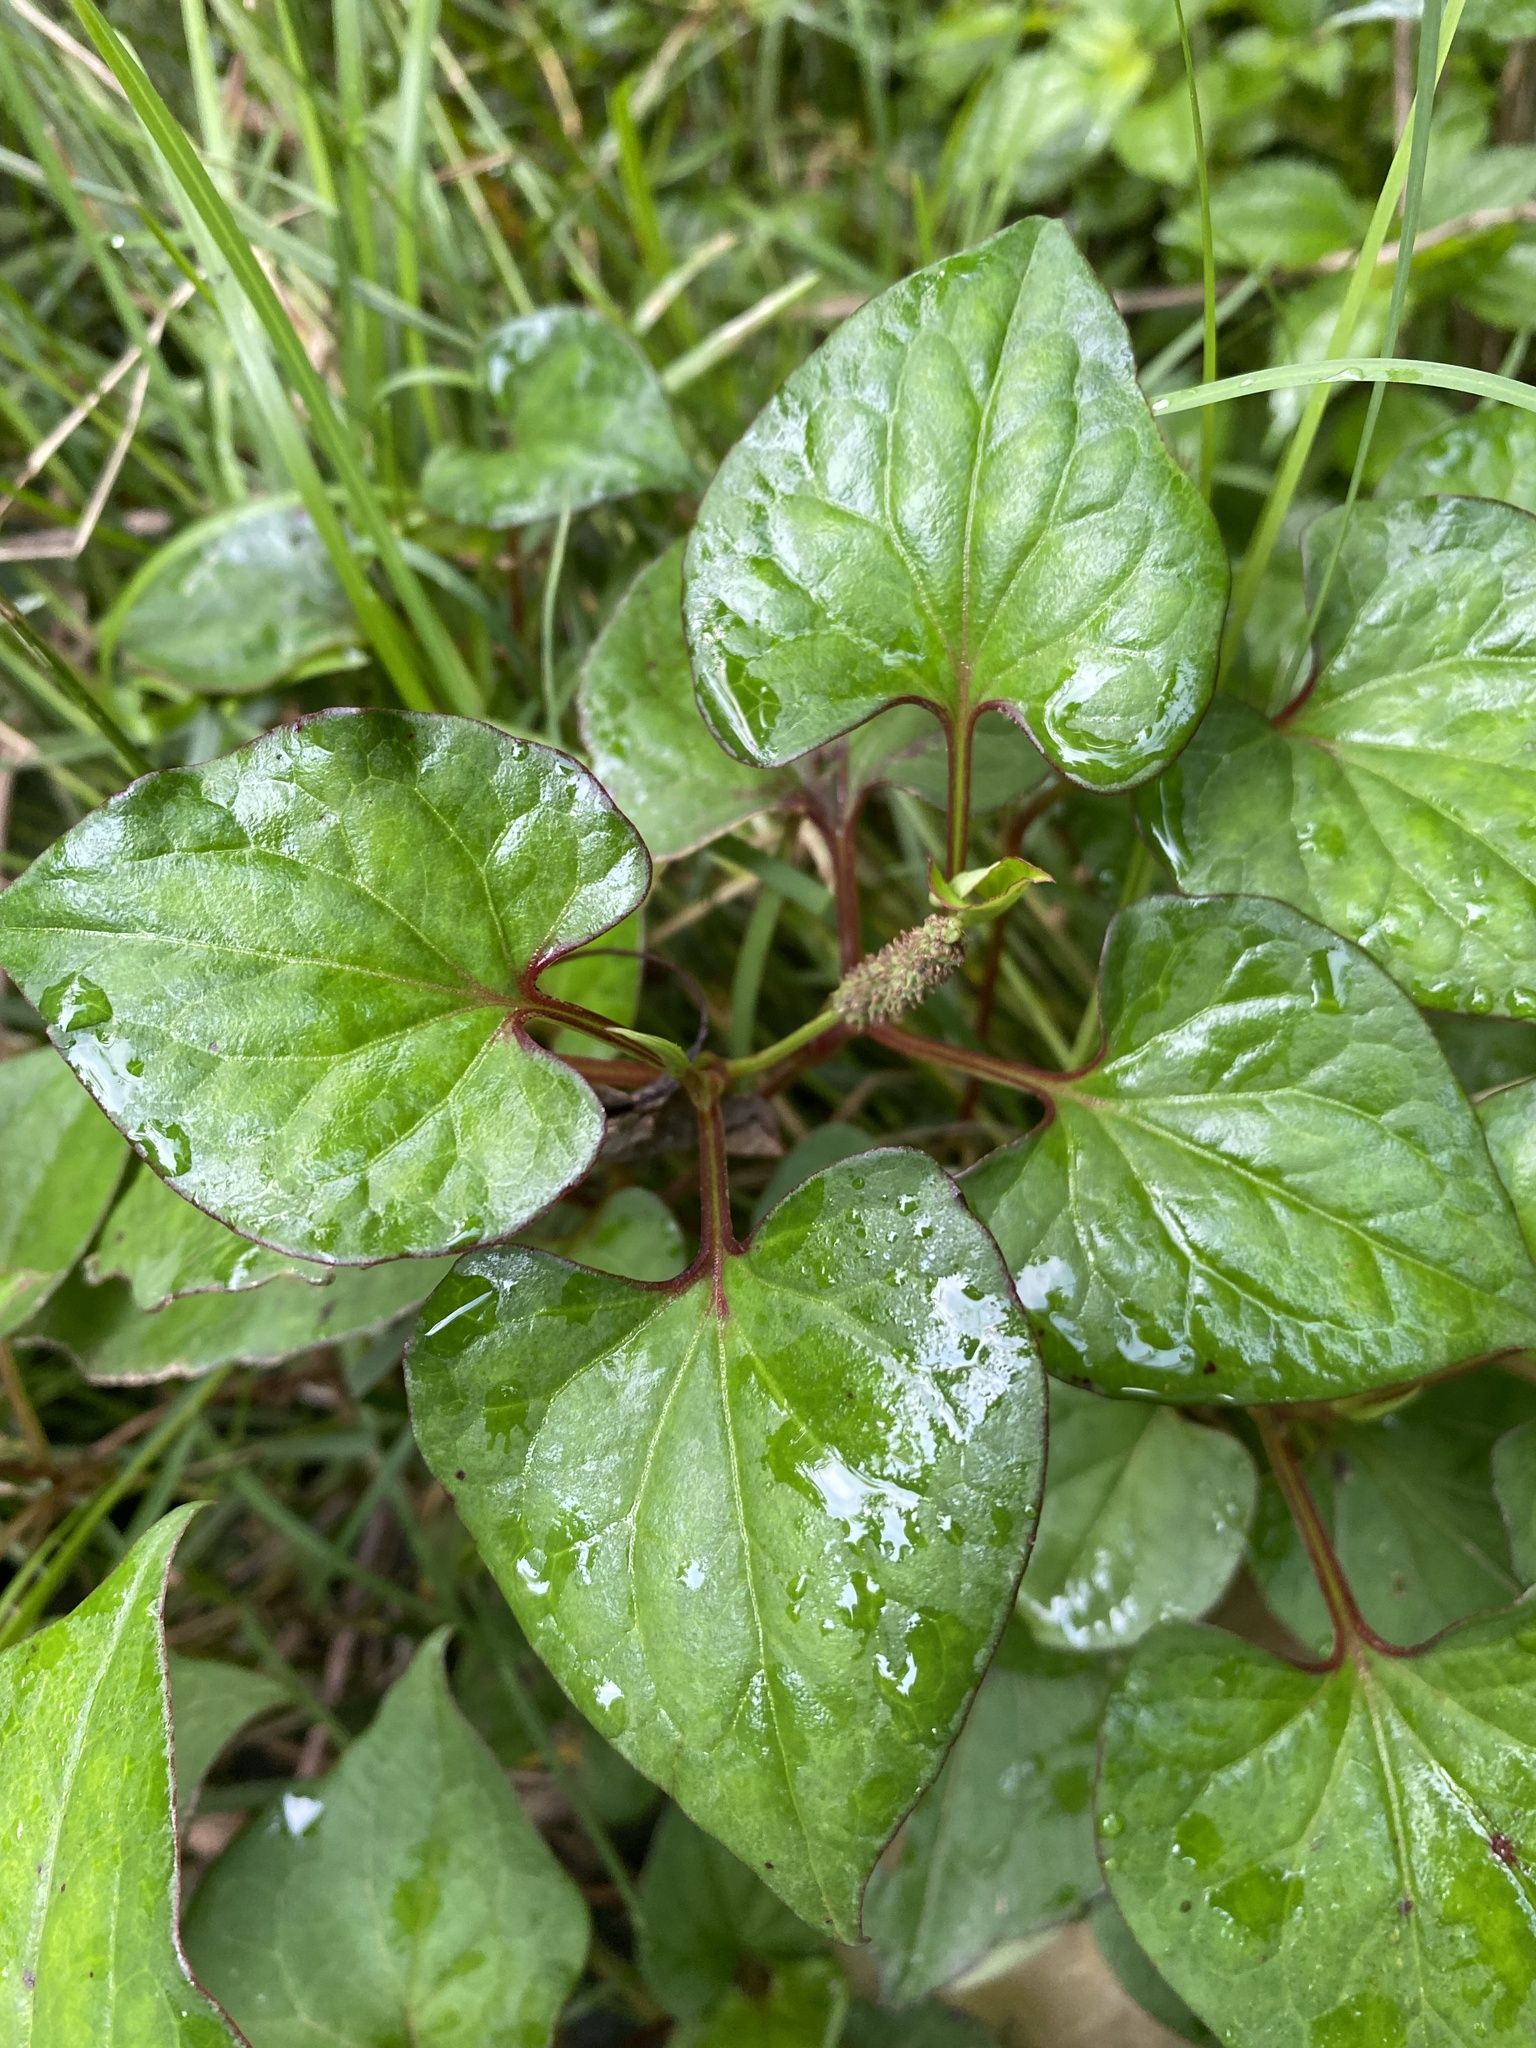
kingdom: Plantae
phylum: Tracheophyta
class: Magnoliopsida
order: Piperales
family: Saururaceae
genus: Houttuynia
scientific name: Houttuynia cordata
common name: Chameleon
